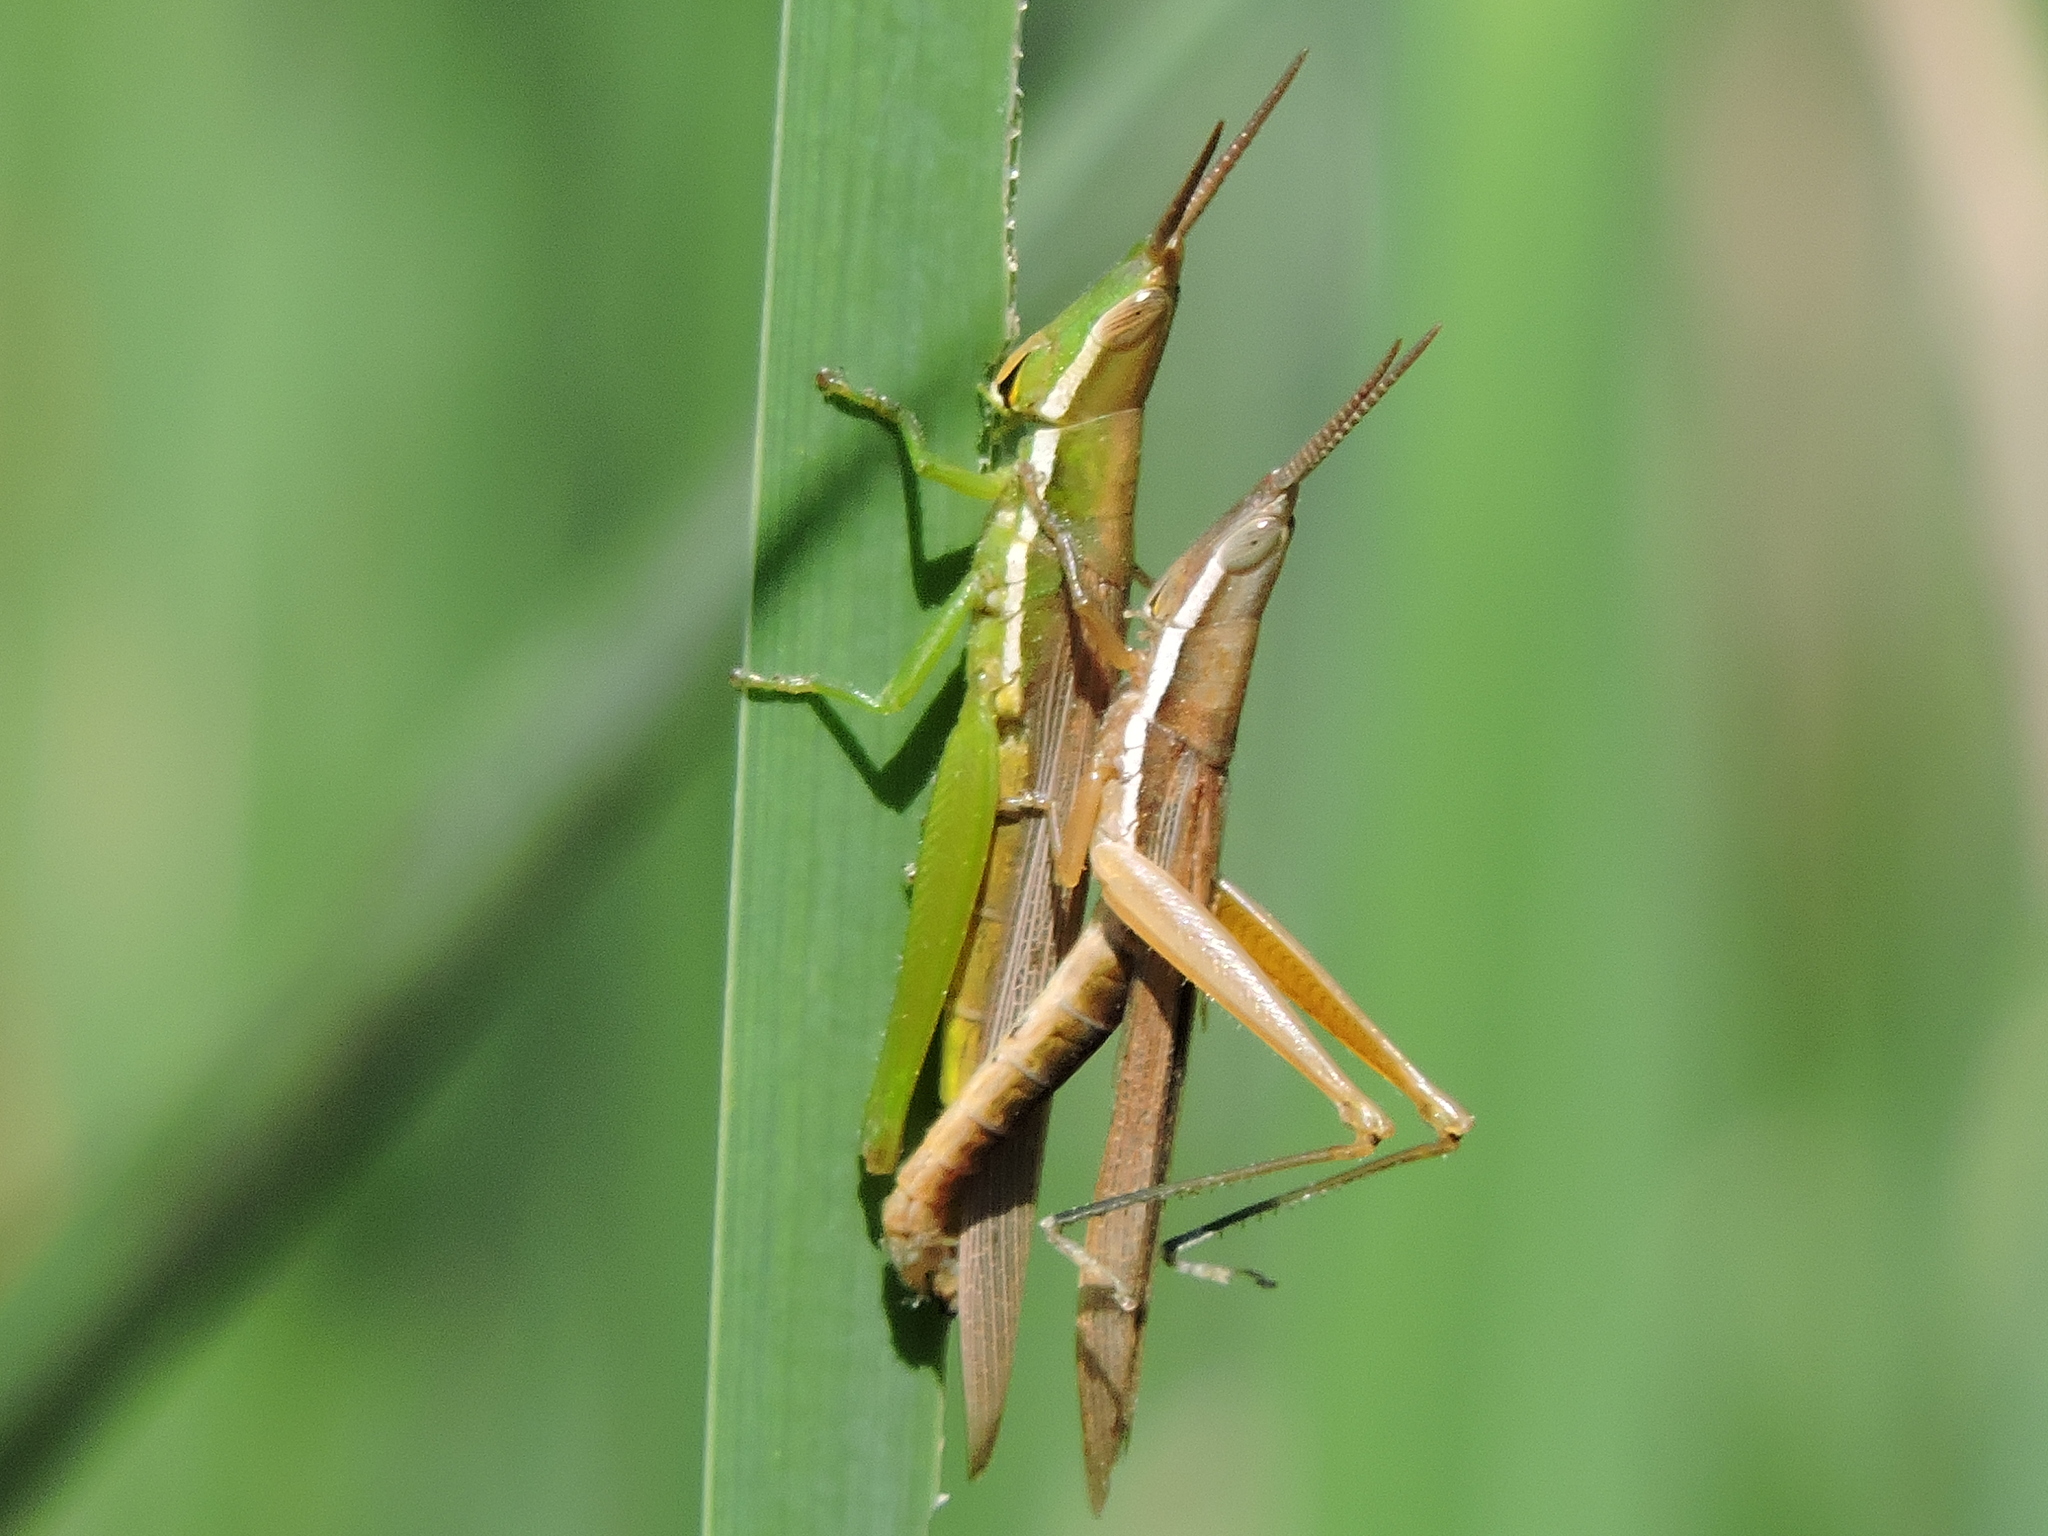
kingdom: Animalia
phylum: Arthropoda
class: Insecta
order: Orthoptera
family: Acrididae
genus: Leptysma
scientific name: Leptysma marginicollis
